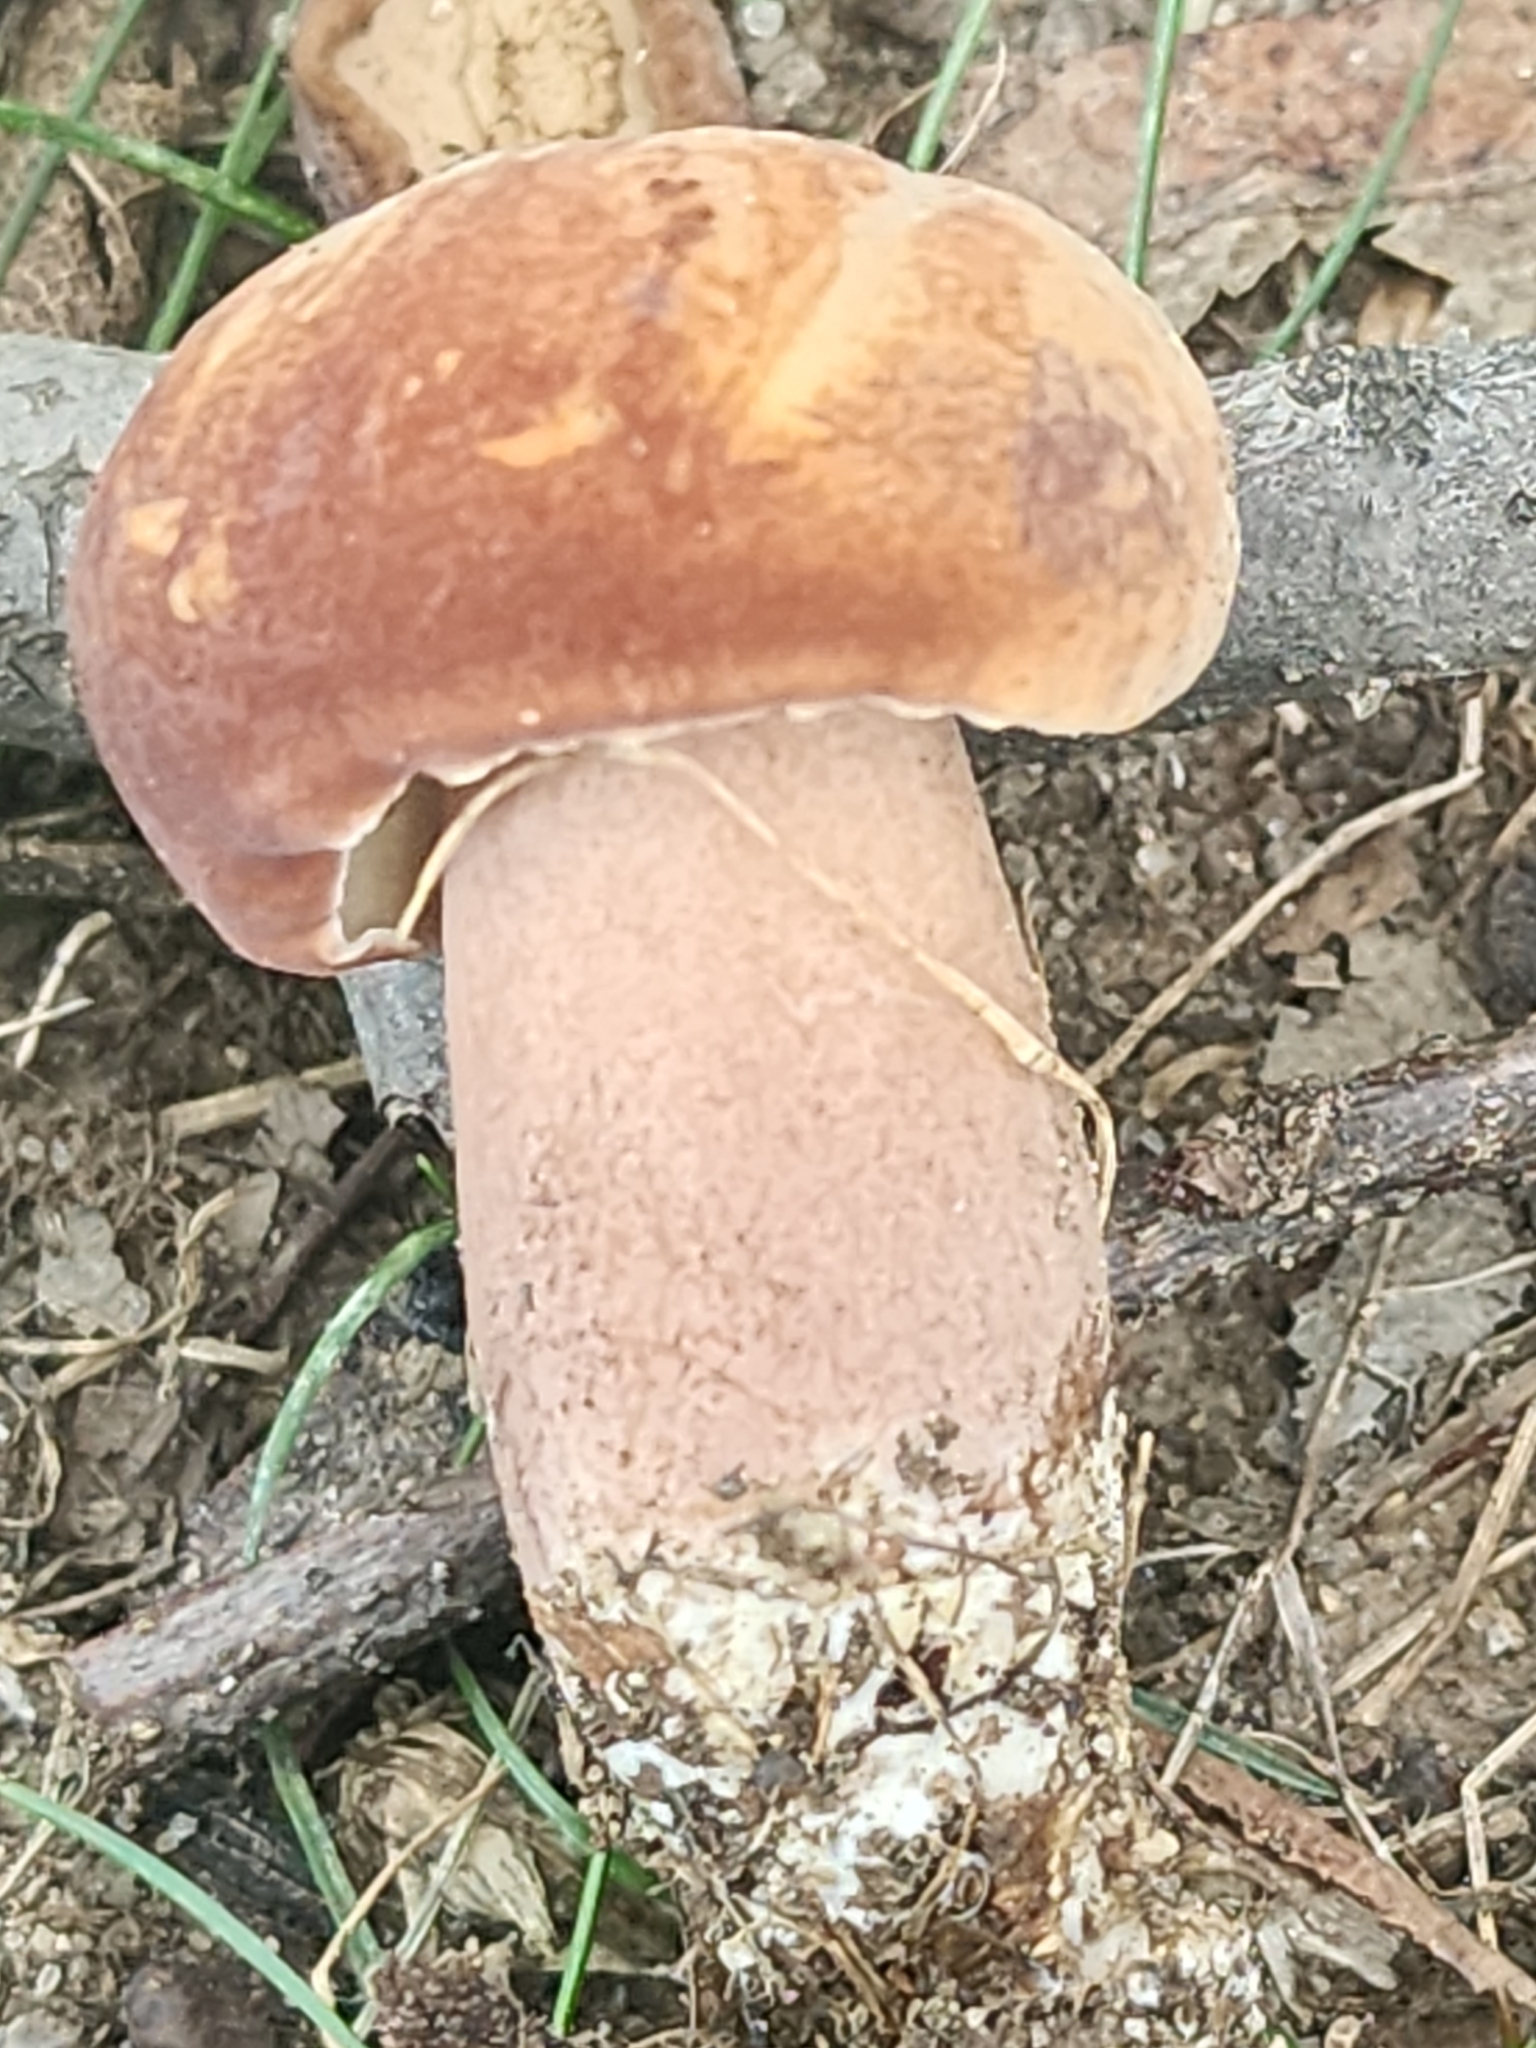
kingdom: Fungi
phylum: Basidiomycota
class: Agaricomycetes
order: Boletales
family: Gyroporaceae
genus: Gyroporus
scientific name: Gyroporus borealis
